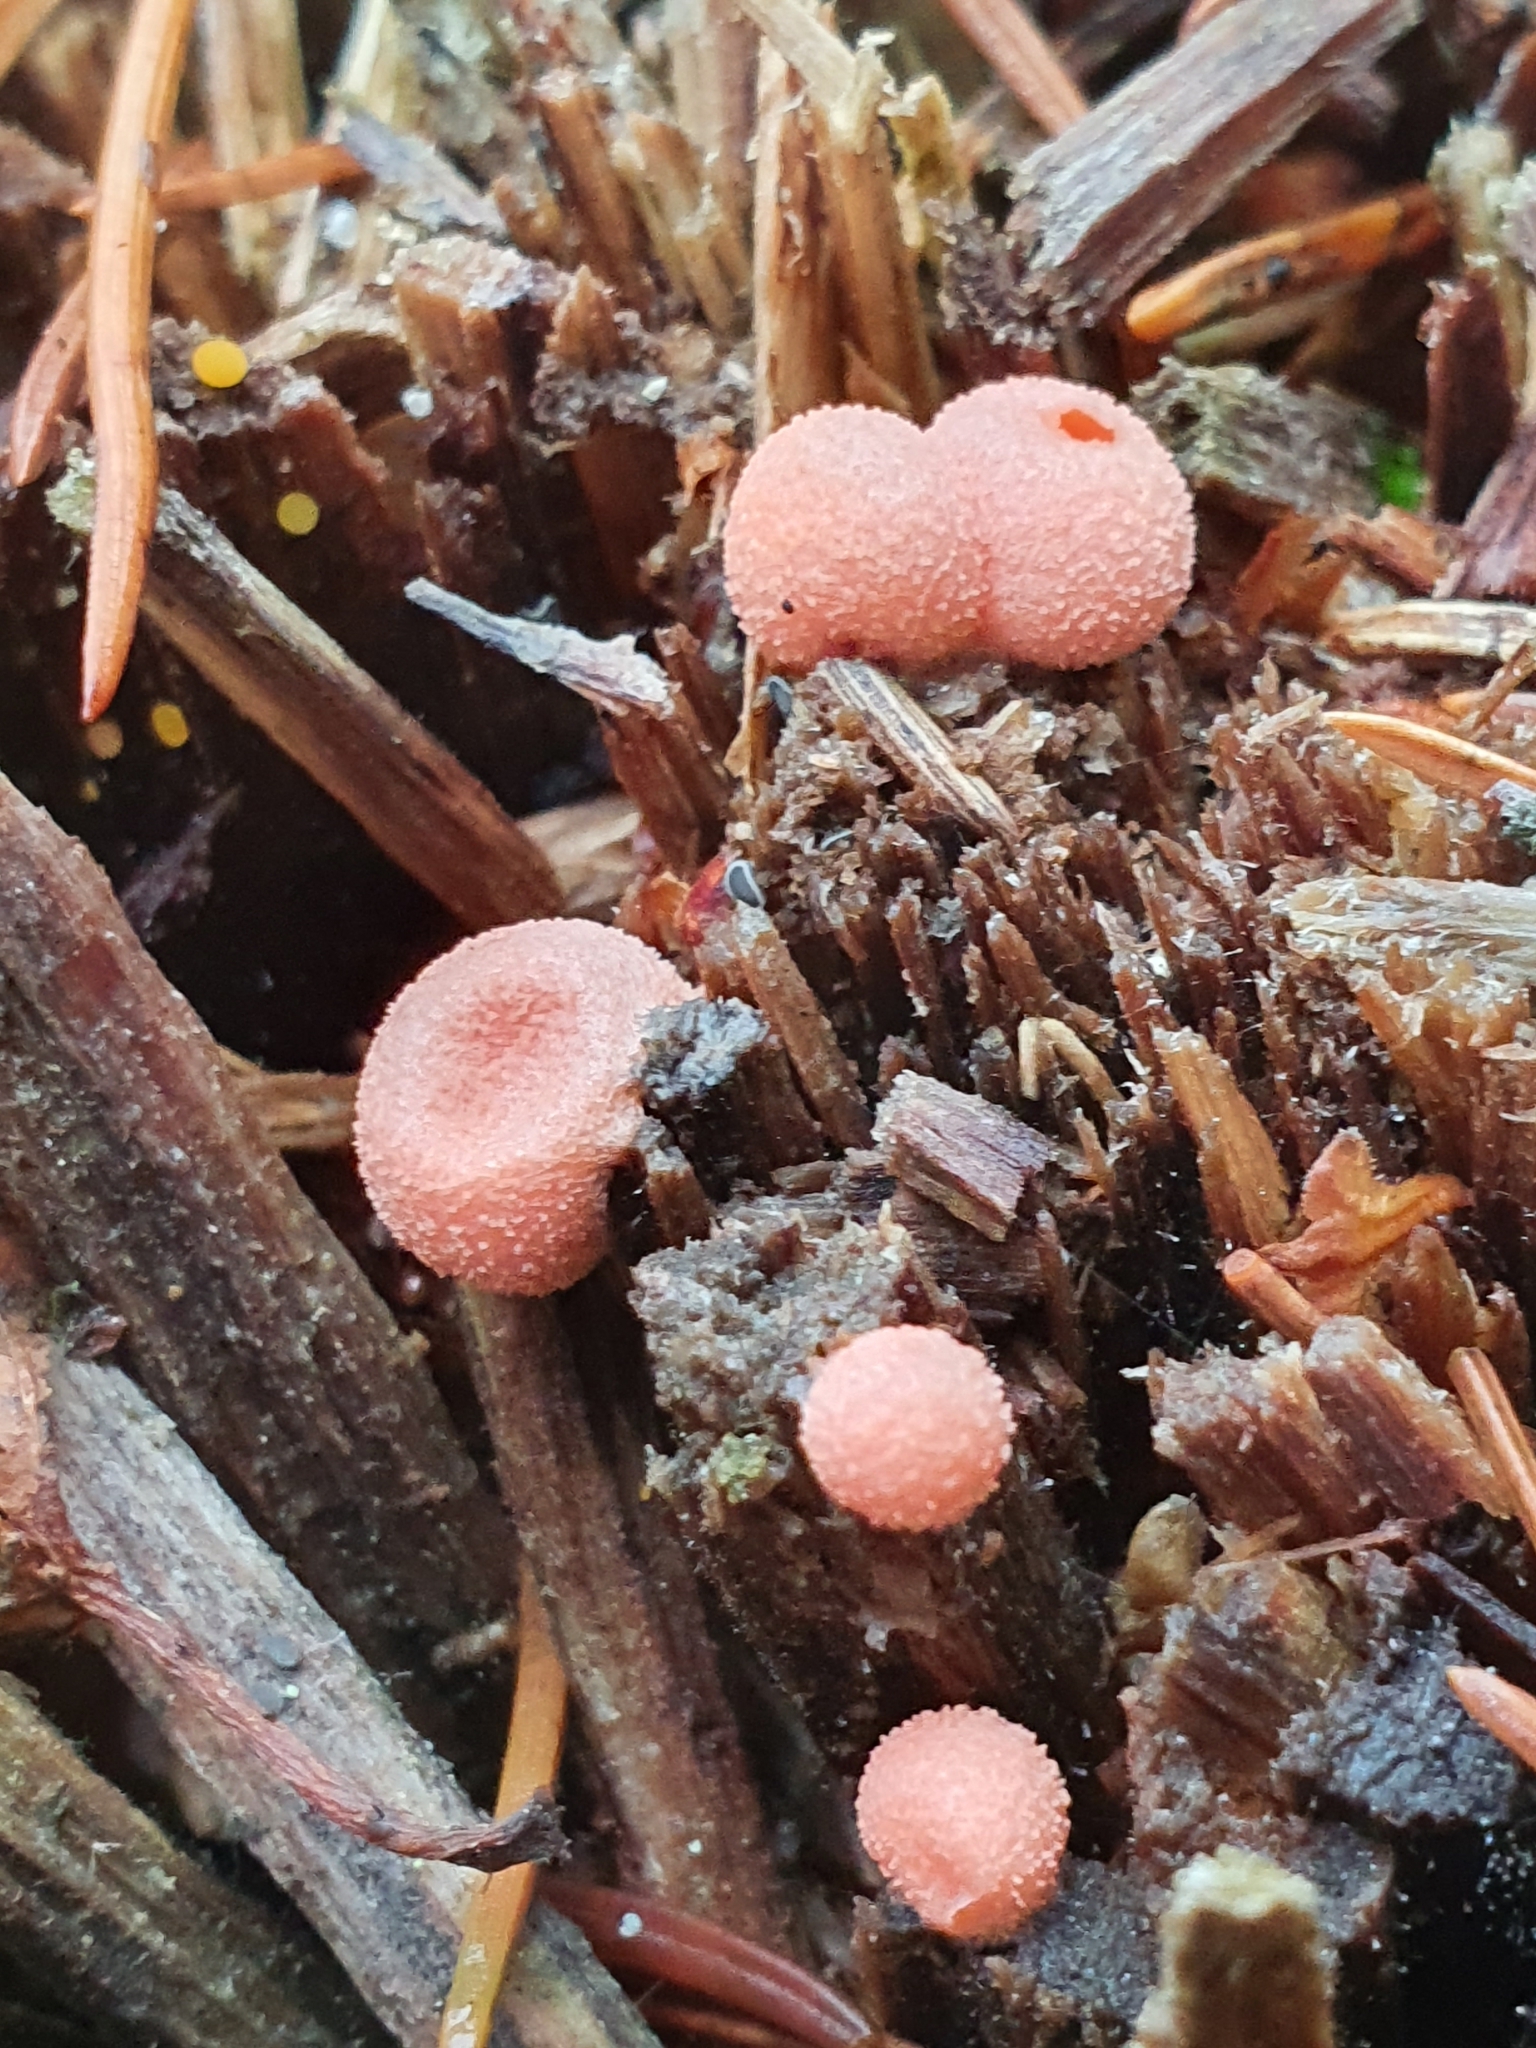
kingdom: Protozoa
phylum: Mycetozoa
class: Myxomycetes
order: Cribrariales
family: Tubiferaceae
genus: Lycogala
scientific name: Lycogala epidendrum
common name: Wolf's milk
